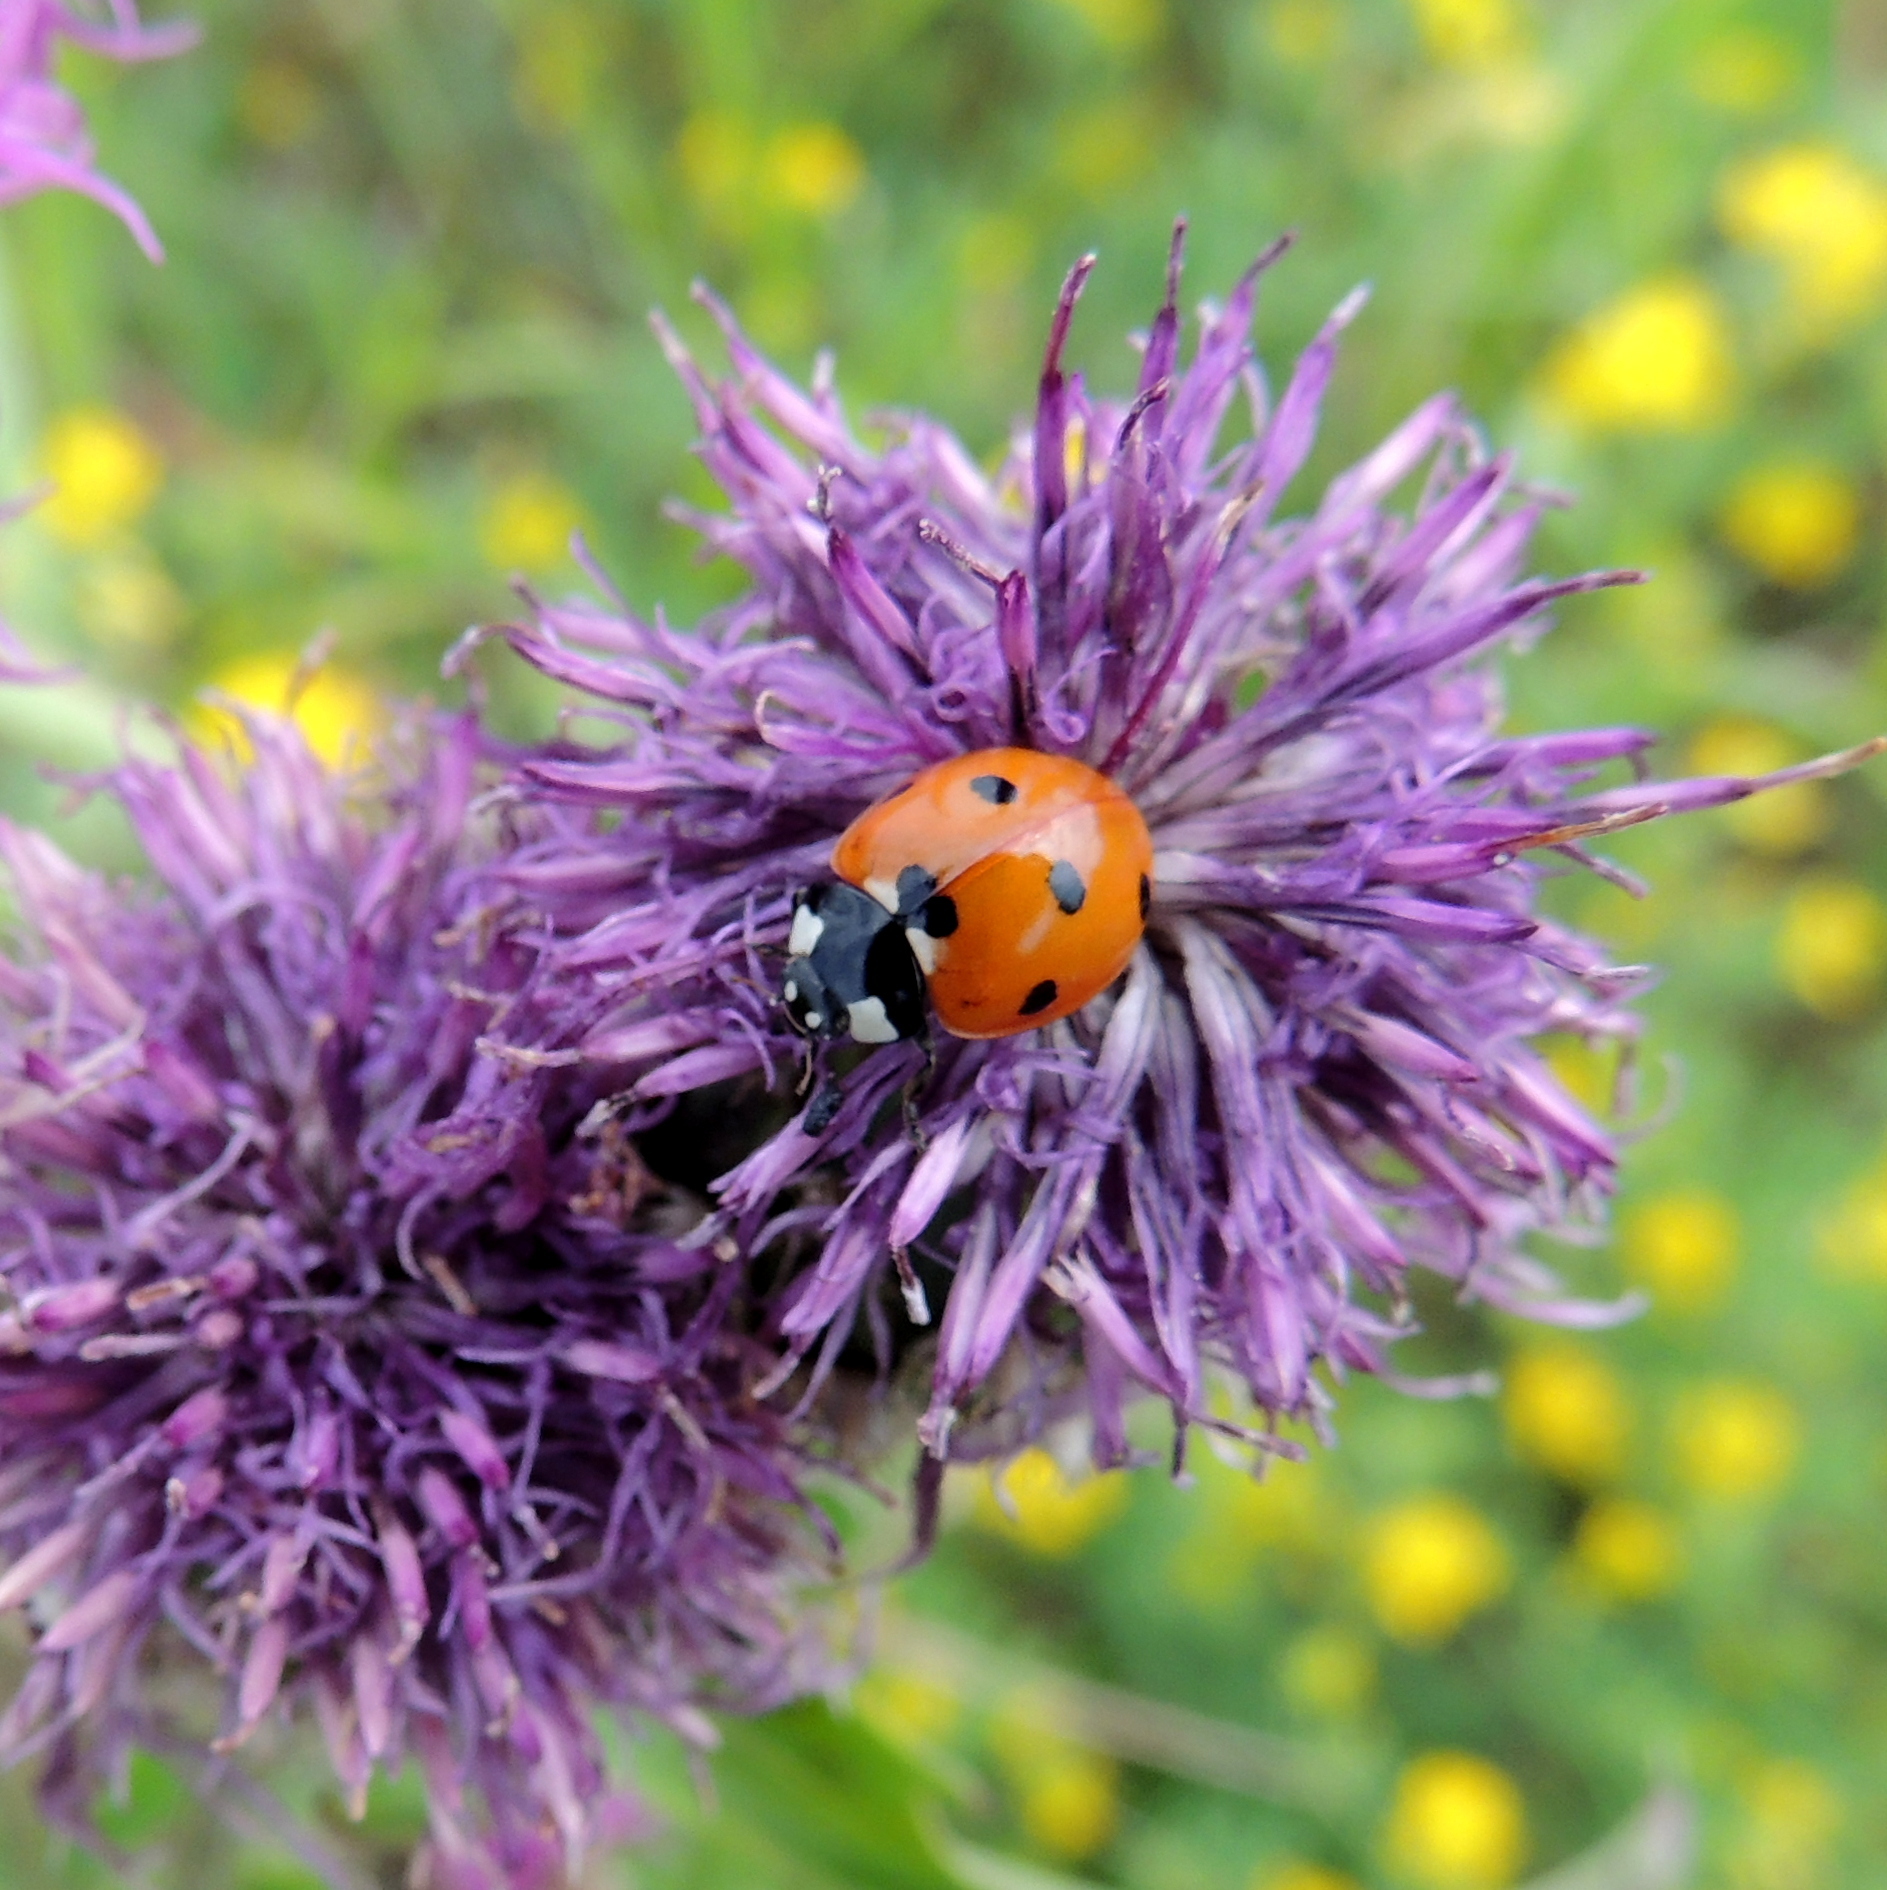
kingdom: Animalia
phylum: Arthropoda
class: Insecta
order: Coleoptera
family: Coccinellidae
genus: Coccinella
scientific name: Coccinella septempunctata
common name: Sevenspotted lady beetle
